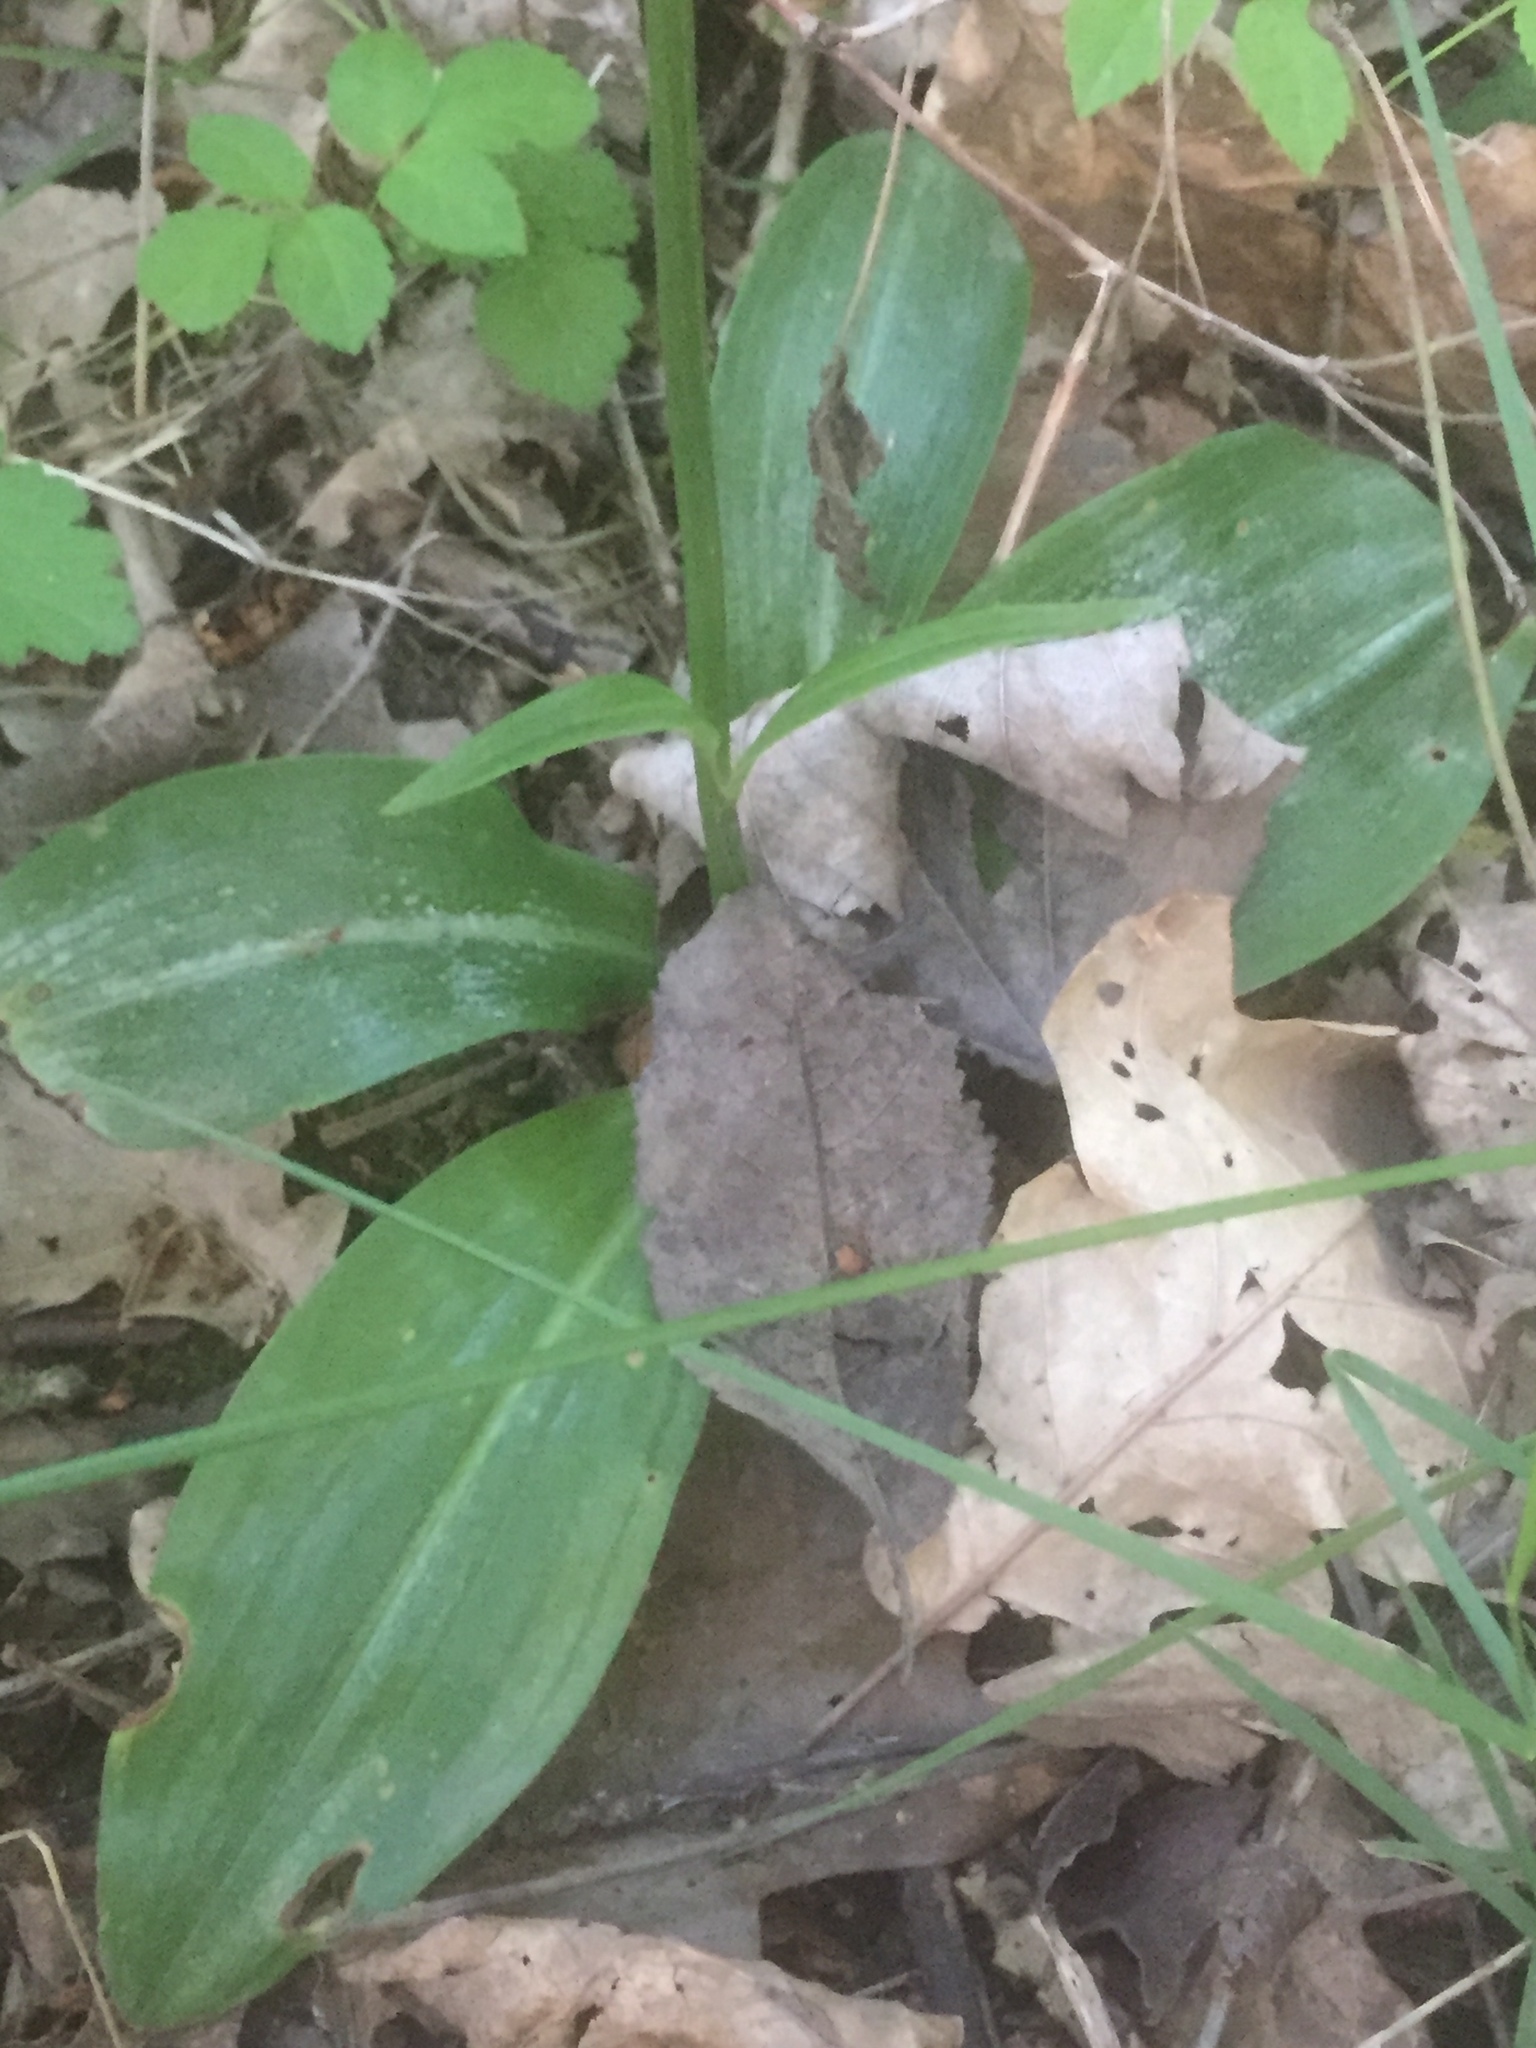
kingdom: Plantae
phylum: Tracheophyta
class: Liliopsida
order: Asparagales
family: Orchidaceae
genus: Platanthera
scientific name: Platanthera bifolia
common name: Lesser butterfly-orchid
